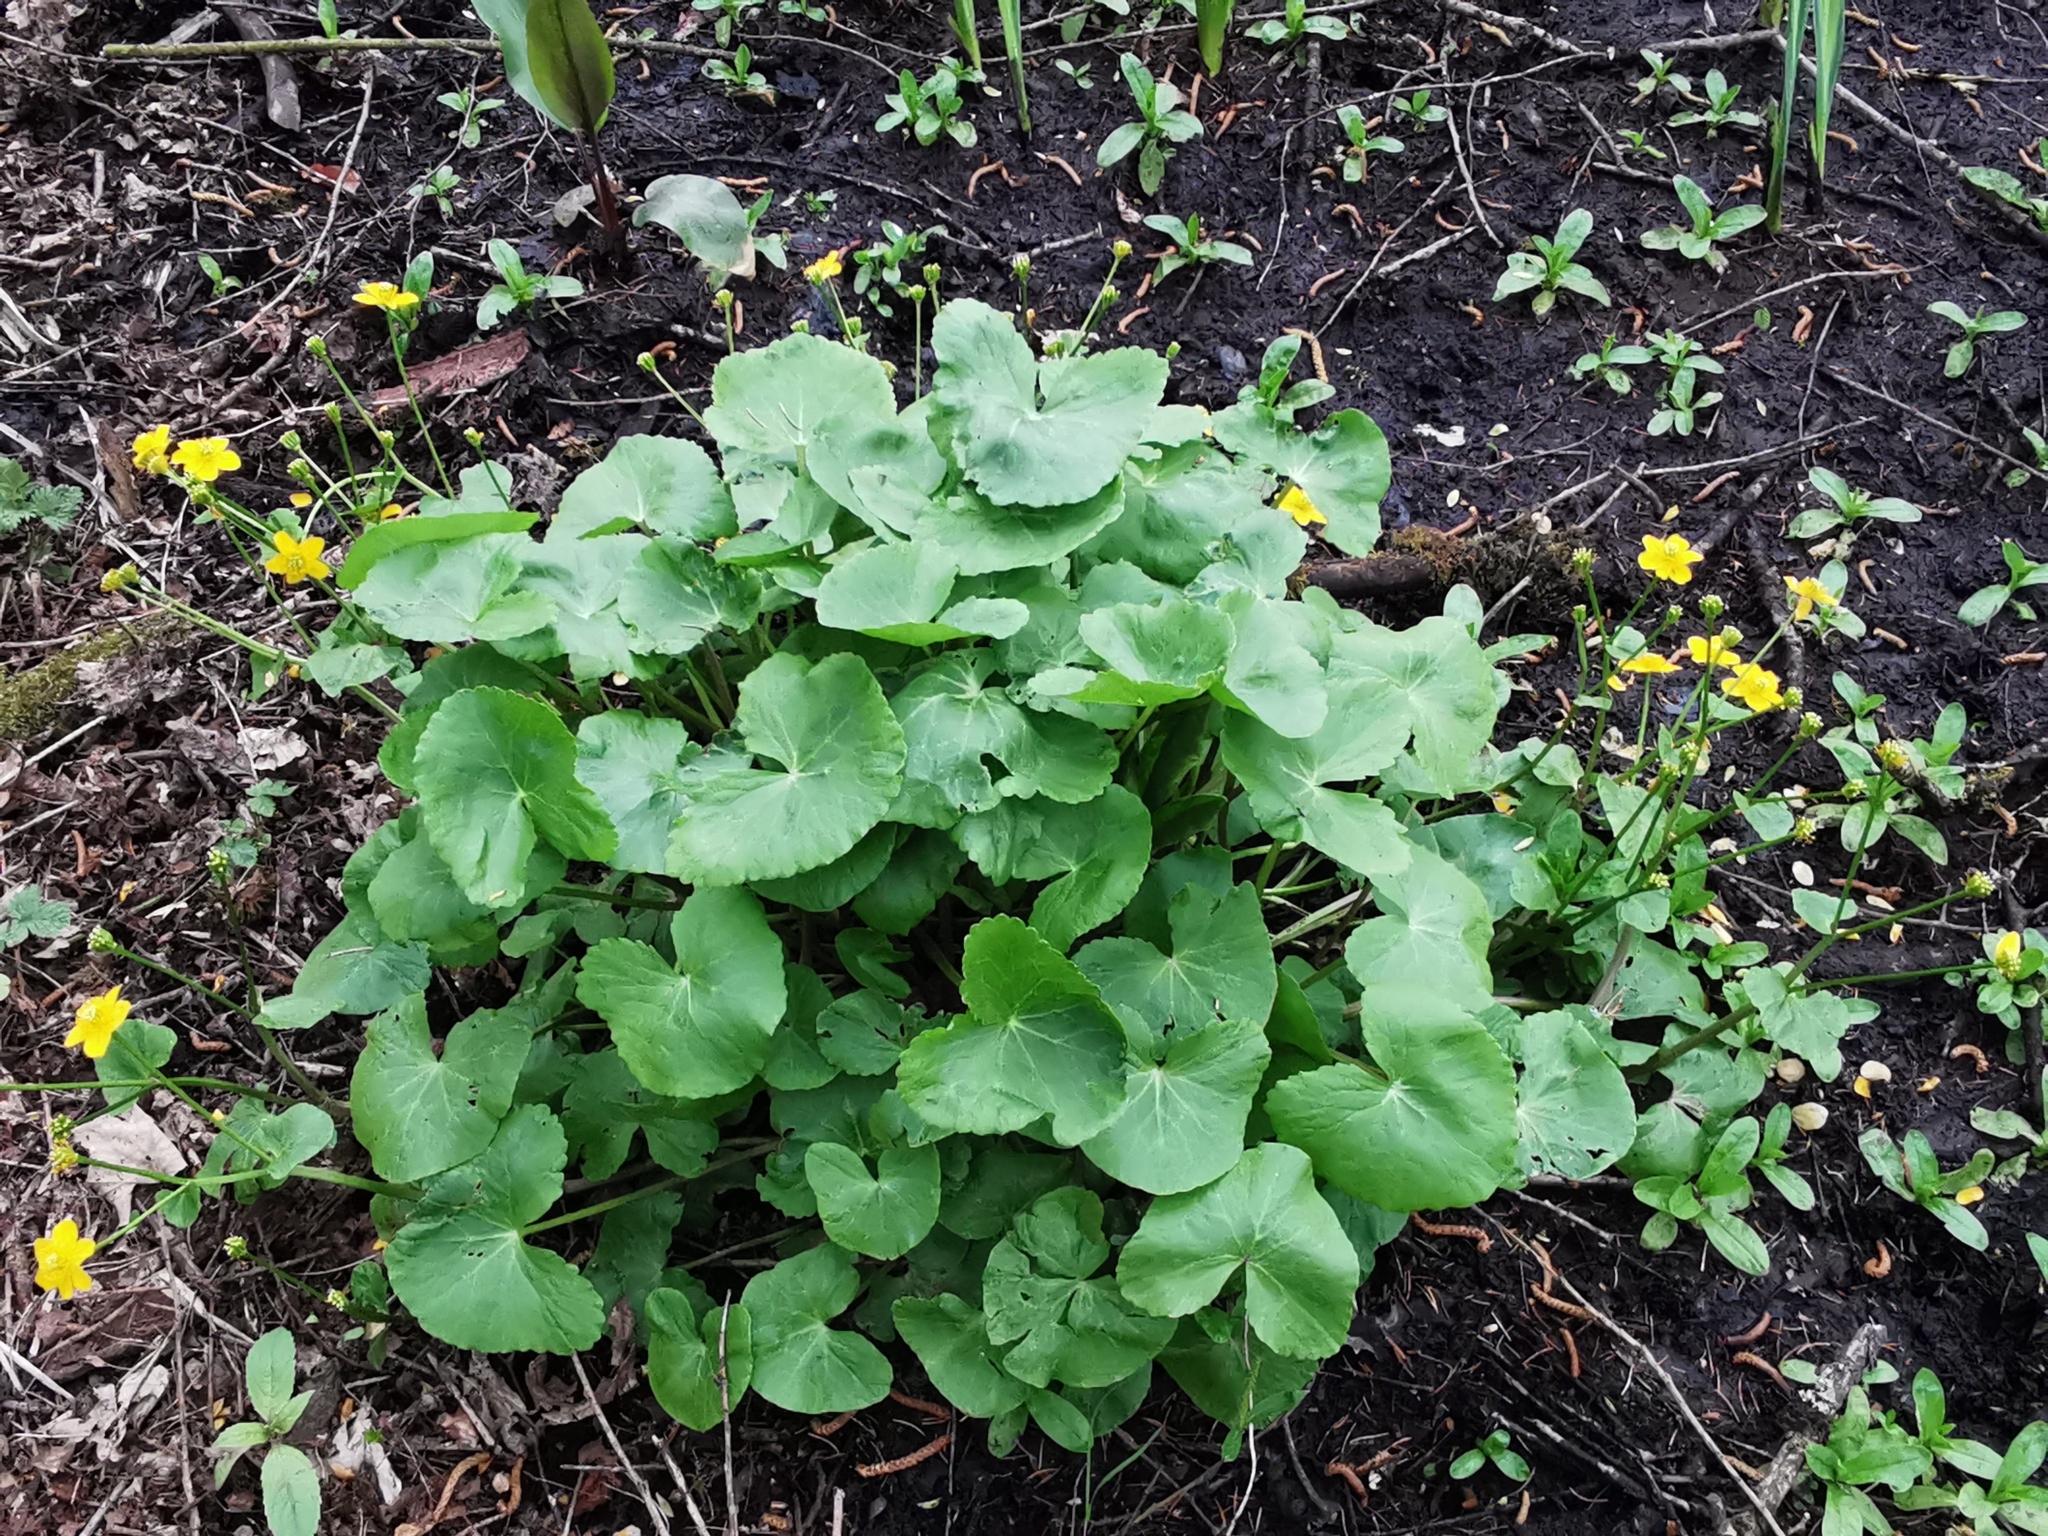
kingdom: Plantae
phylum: Tracheophyta
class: Magnoliopsida
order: Ranunculales
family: Ranunculaceae
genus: Caltha
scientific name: Caltha palustris
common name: Marsh marigold
